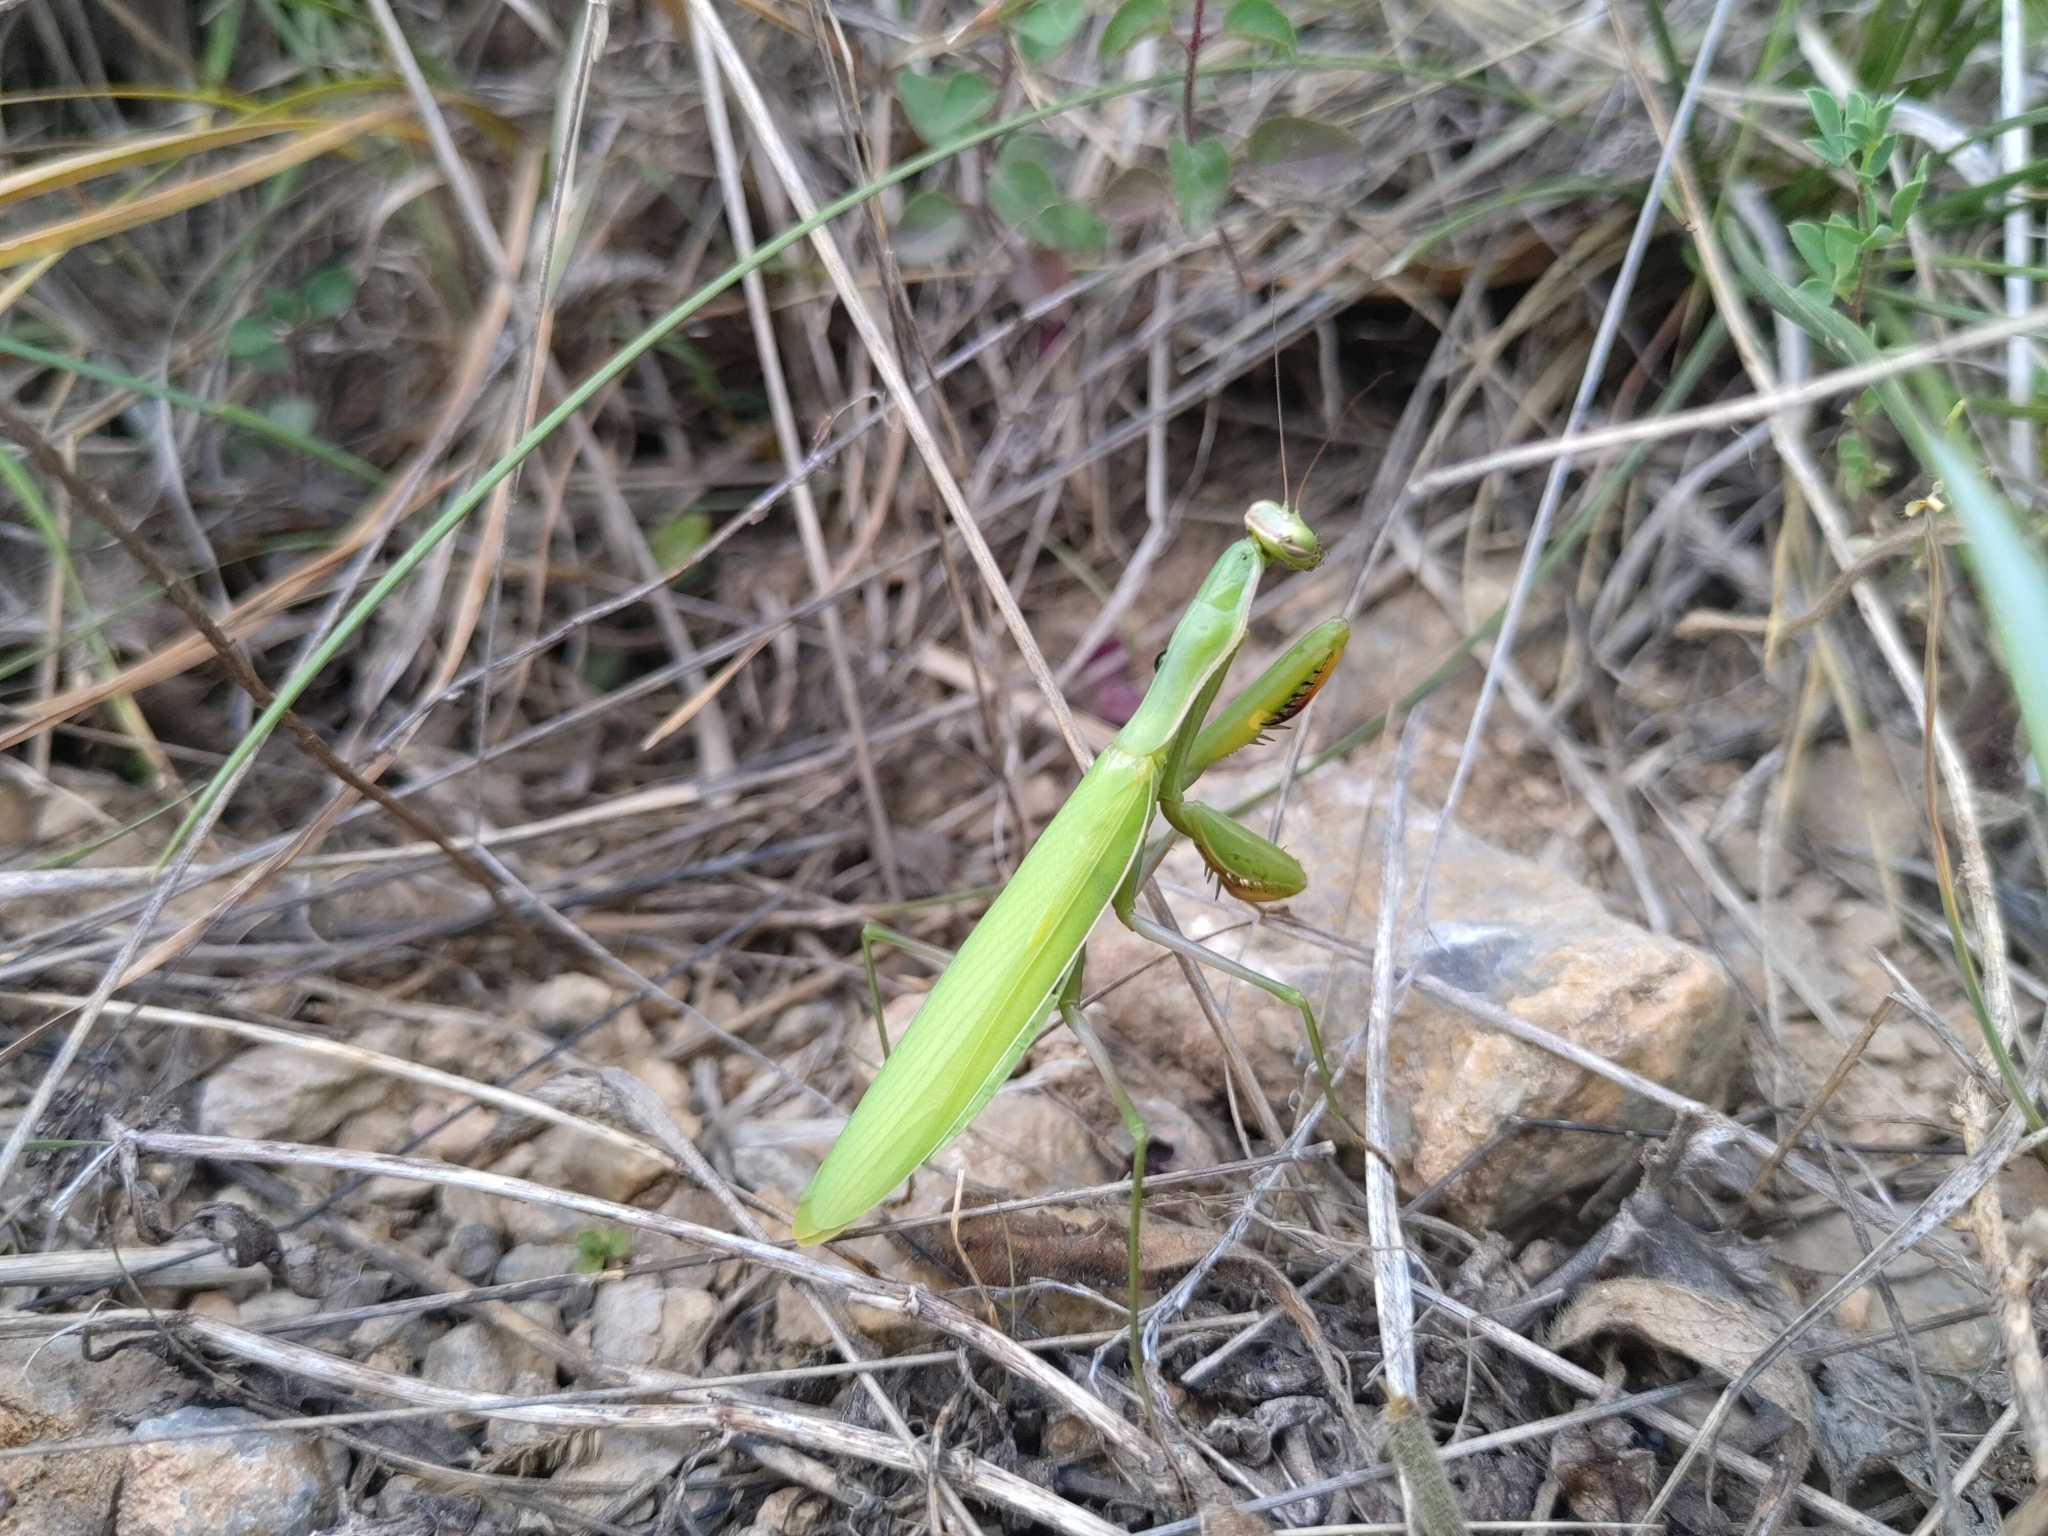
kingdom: Animalia
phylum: Arthropoda
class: Insecta
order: Mantodea
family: Mantidae
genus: Mantis
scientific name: Mantis religiosa
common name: Praying mantis
